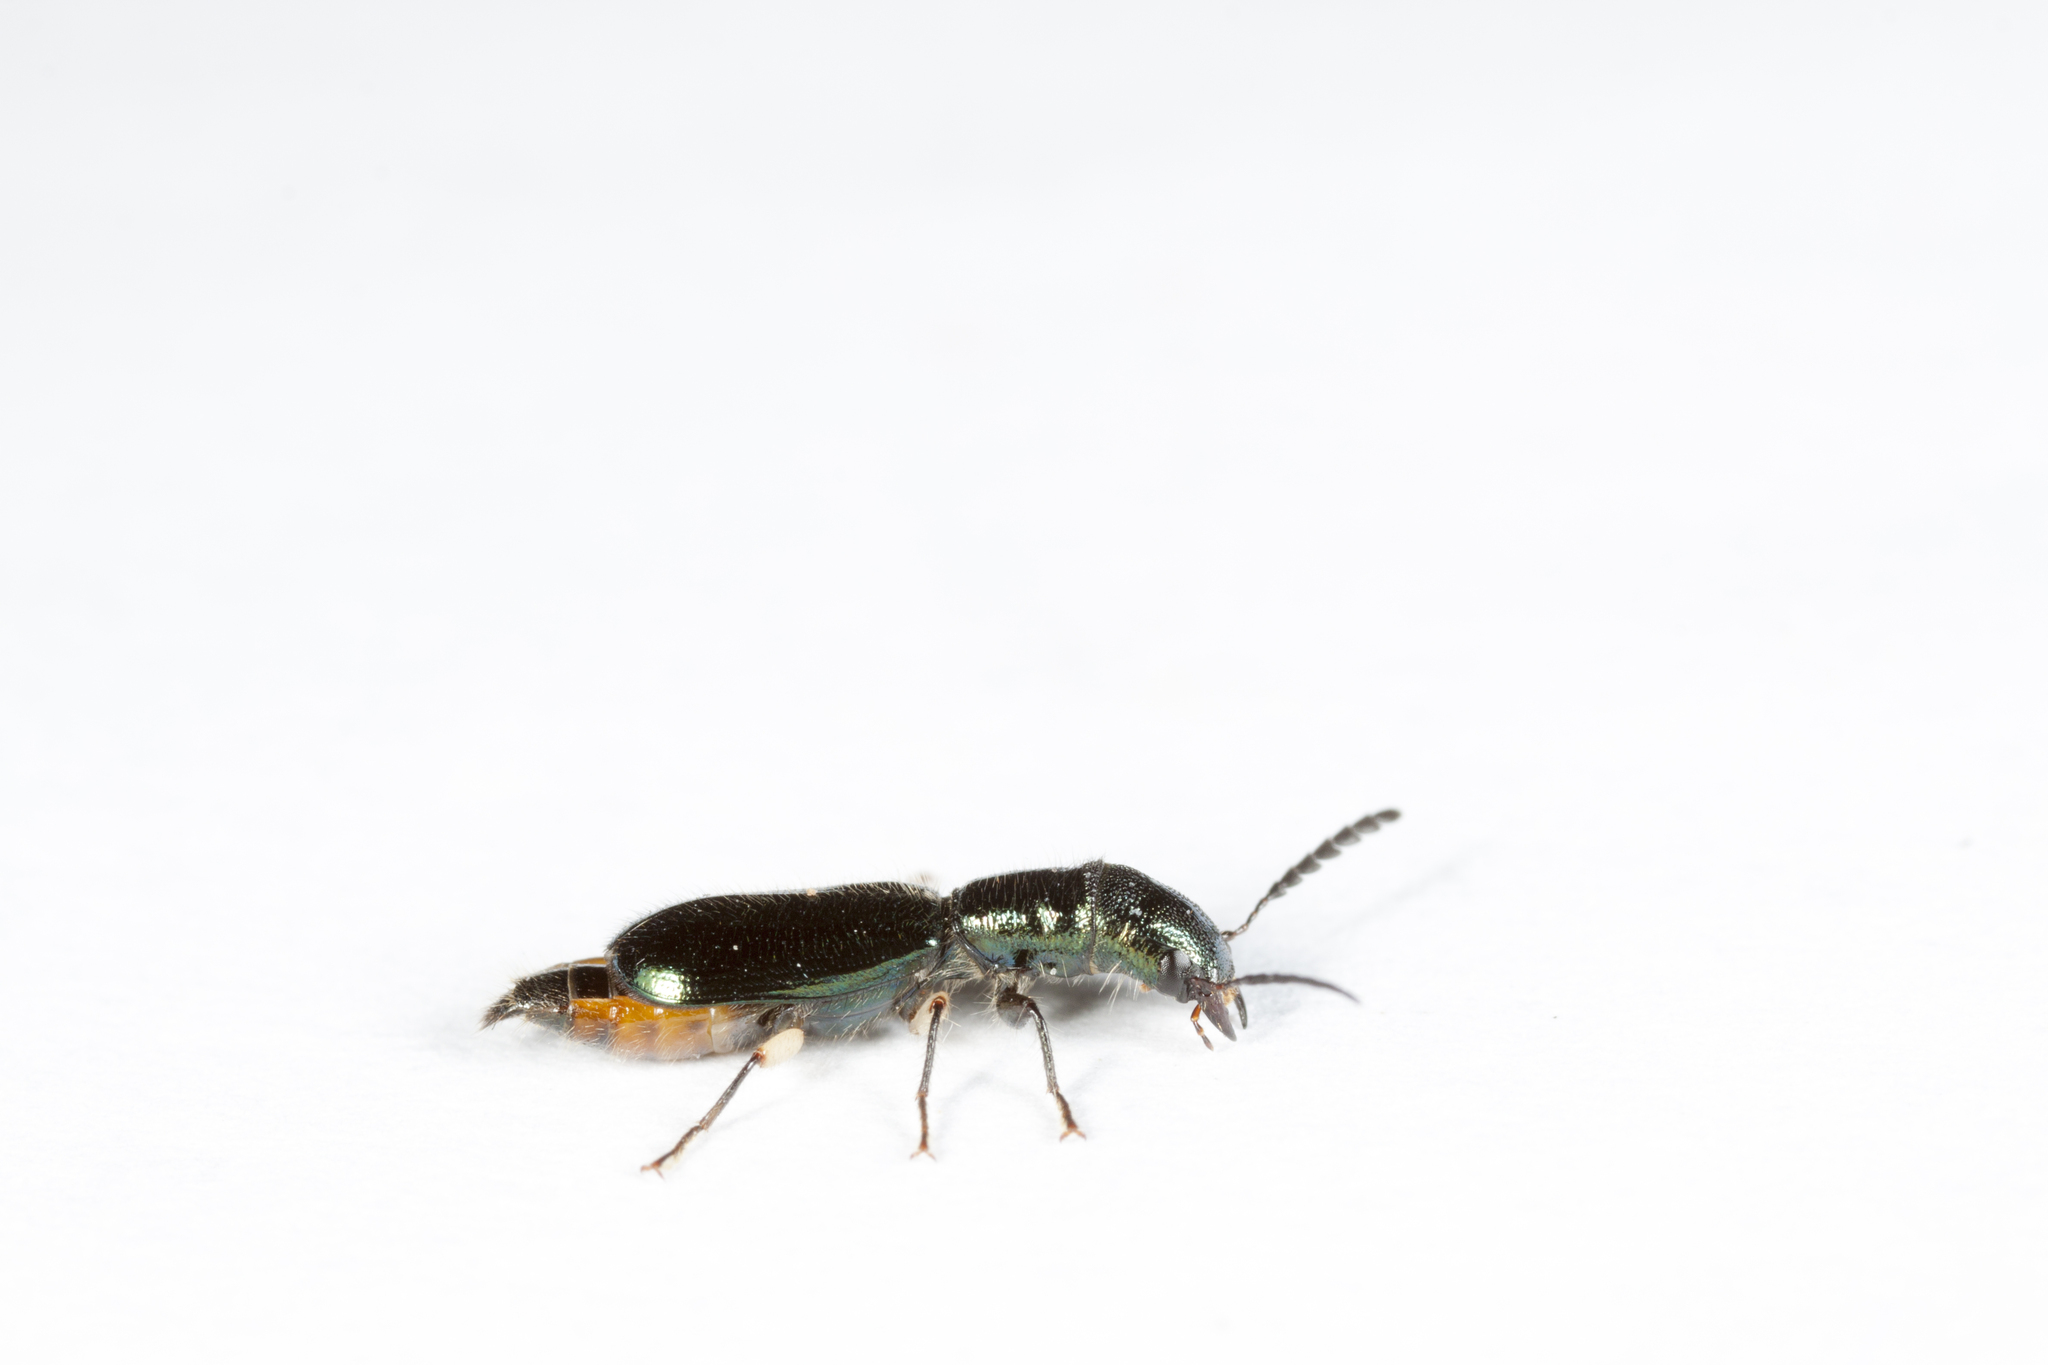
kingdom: Animalia
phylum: Arthropoda
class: Insecta
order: Coleoptera
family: Cleridae
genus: Cylidrus
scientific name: Cylidrus cyaneus
